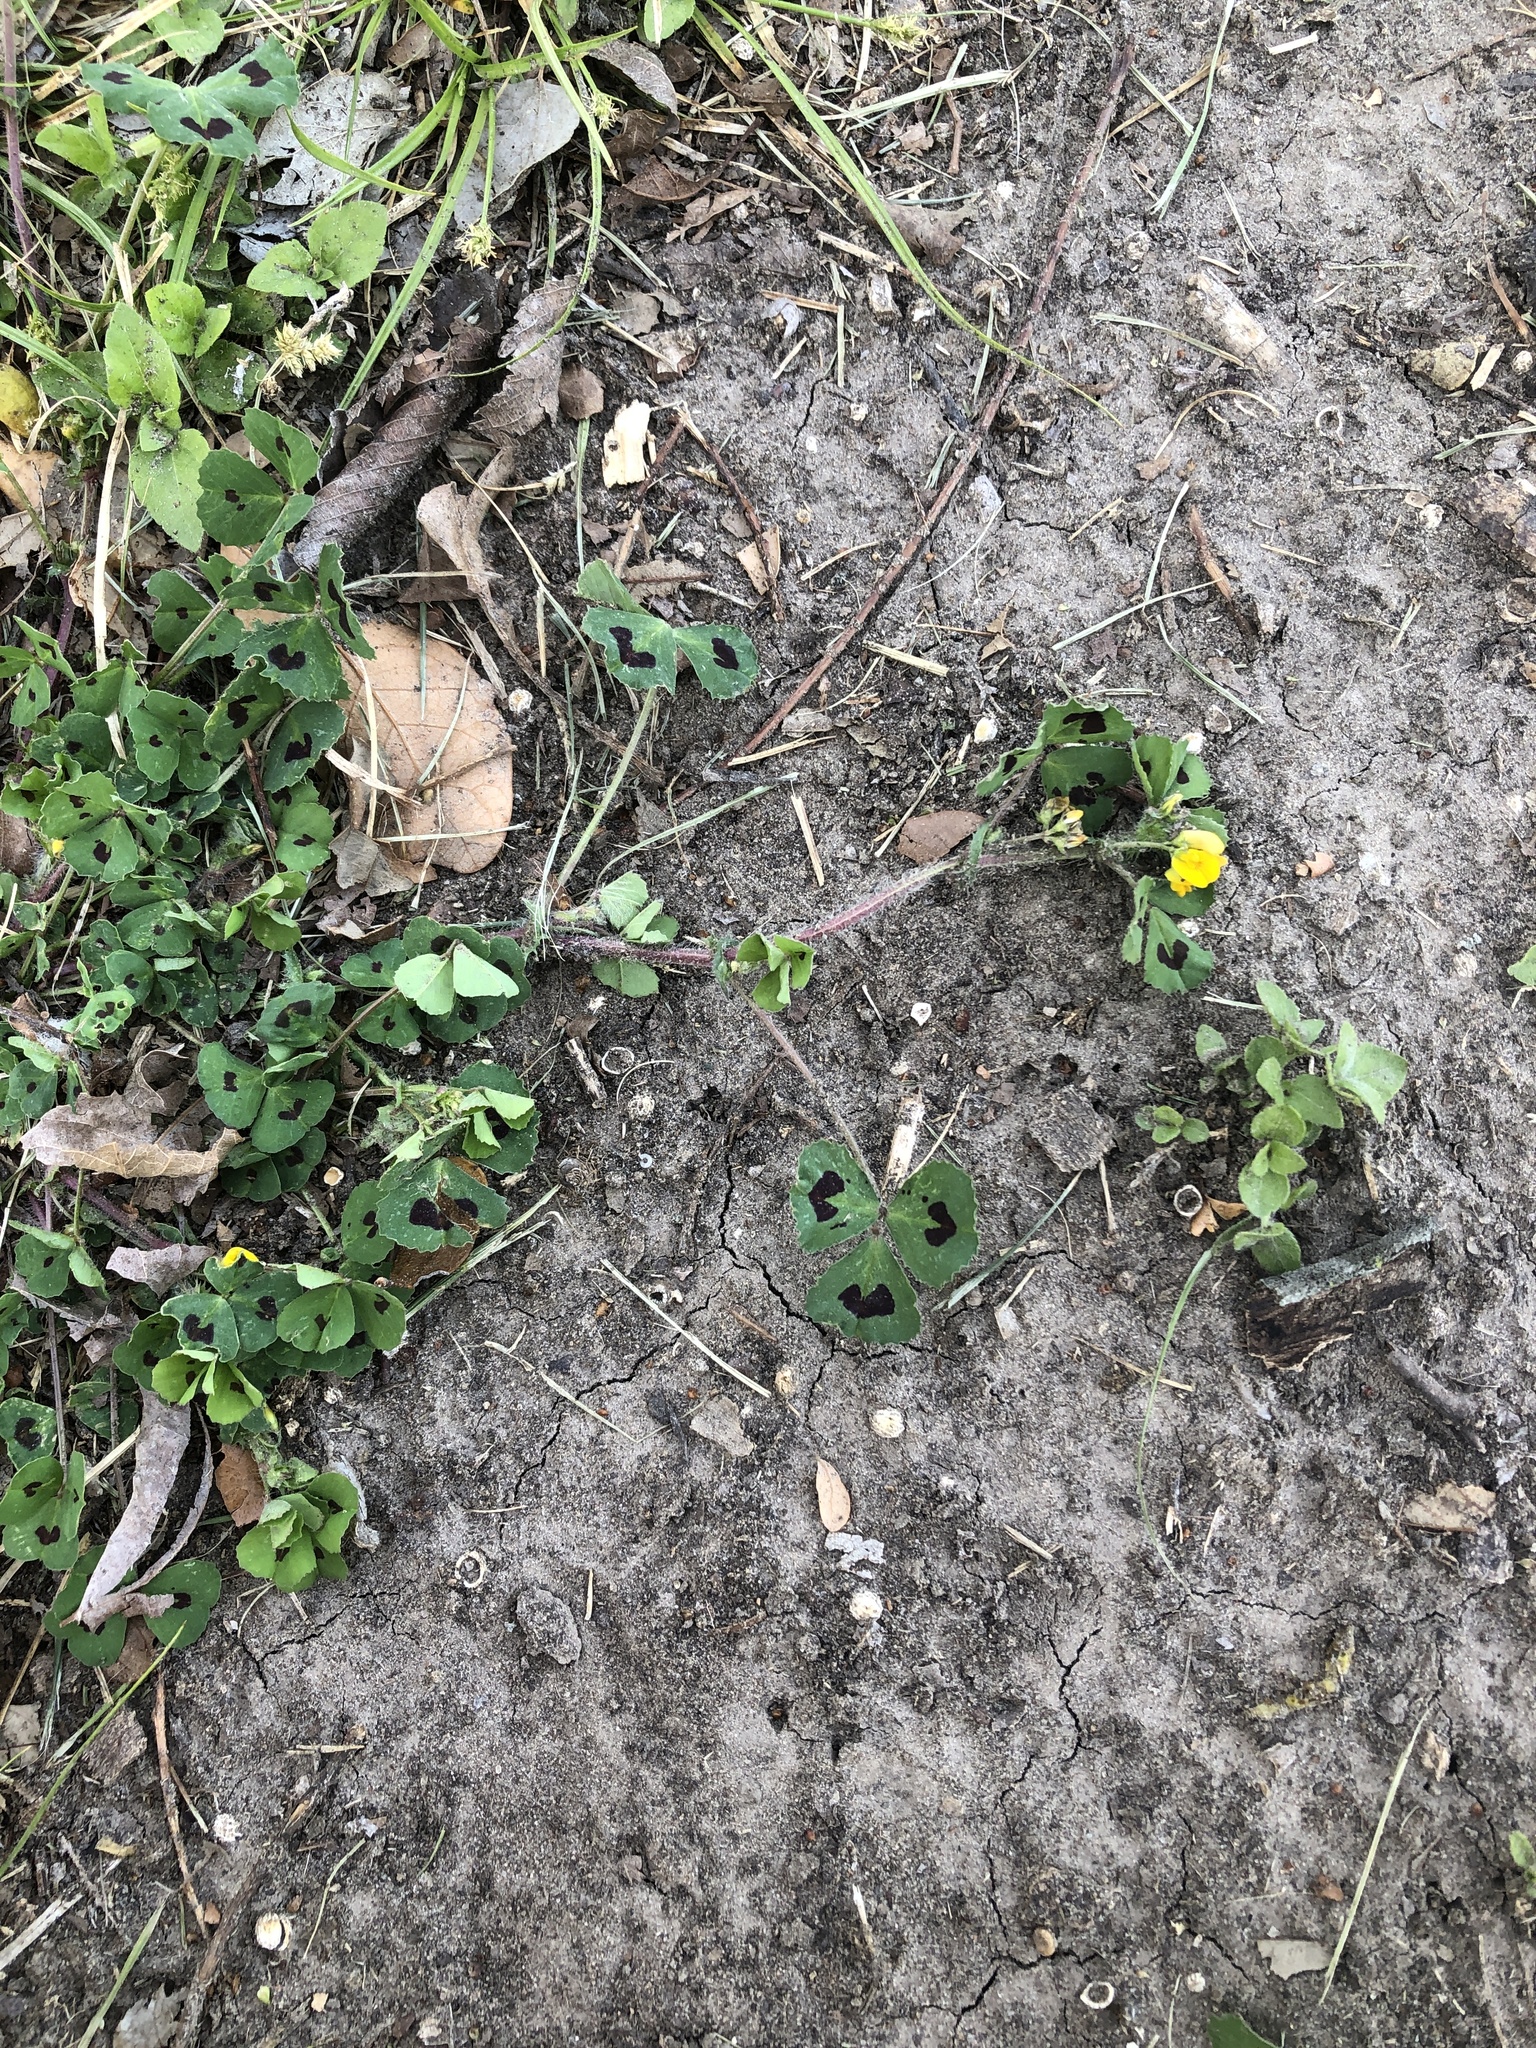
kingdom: Plantae
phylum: Tracheophyta
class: Magnoliopsida
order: Fabales
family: Fabaceae
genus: Medicago
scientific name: Medicago arabica
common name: Spotted medick
